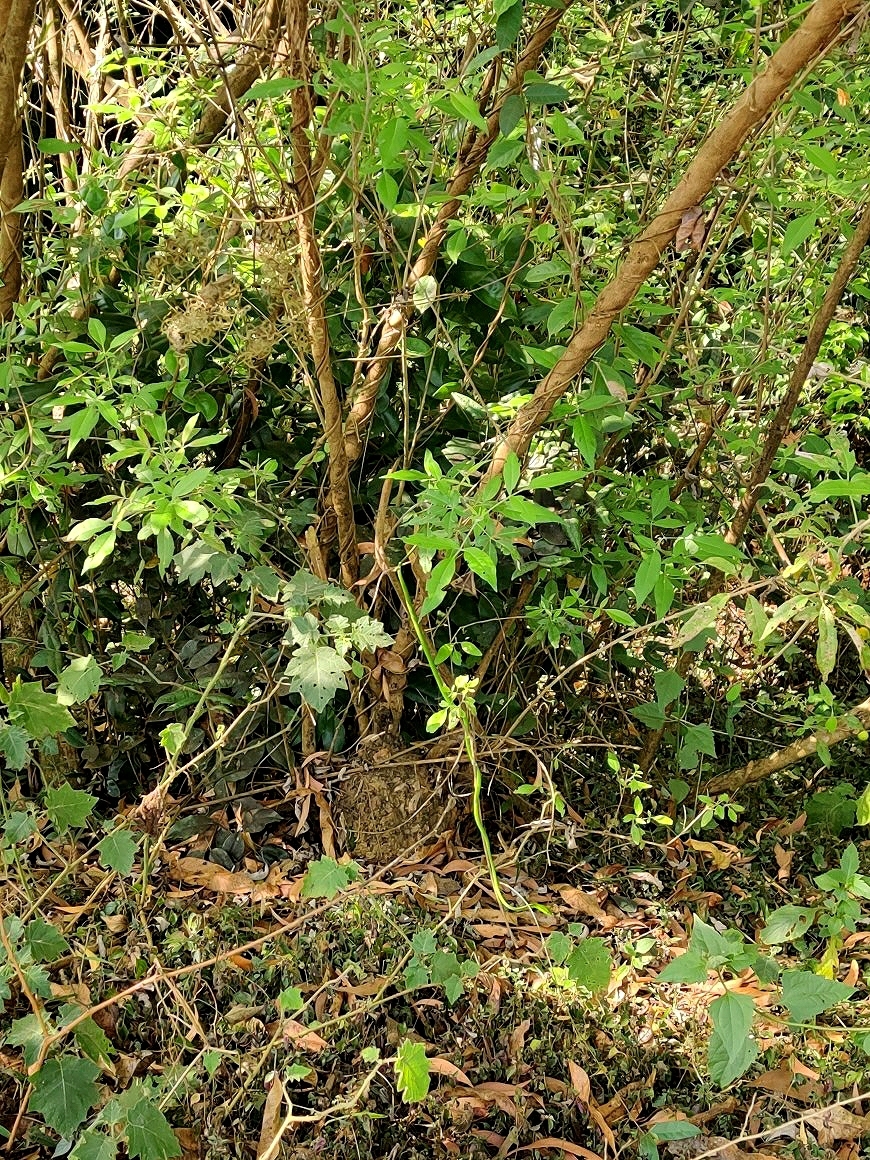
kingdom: Animalia
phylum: Chordata
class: Squamata
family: Colubridae
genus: Ahaetulla
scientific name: Ahaetulla farnsworthi
